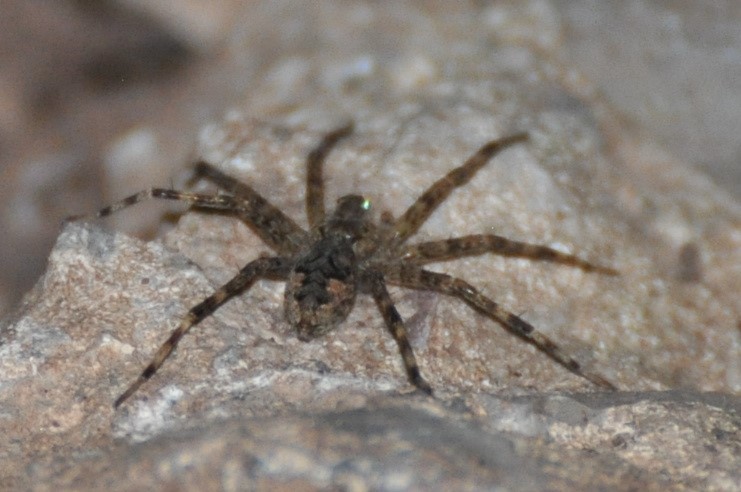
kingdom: Animalia
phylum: Arthropoda
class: Arachnida
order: Araneae
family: Pisauridae
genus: Dolomedes
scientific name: Dolomedes tenebrosus
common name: Dark fishing spider
